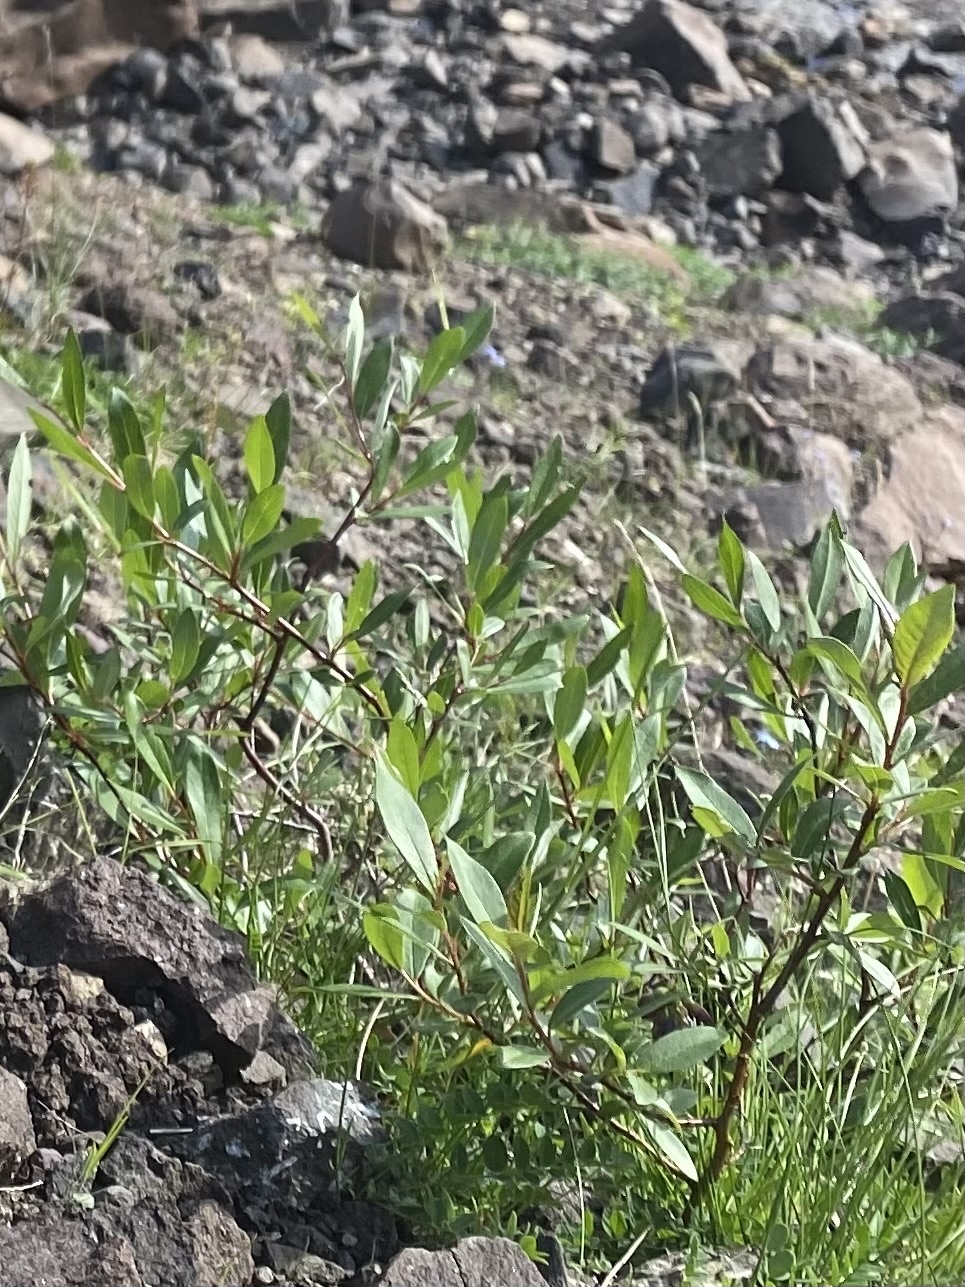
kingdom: Plantae
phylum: Tracheophyta
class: Magnoliopsida
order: Malpighiales
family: Salicaceae
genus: Salix
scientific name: Salix pulchra
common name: Diamond-leaved willow
